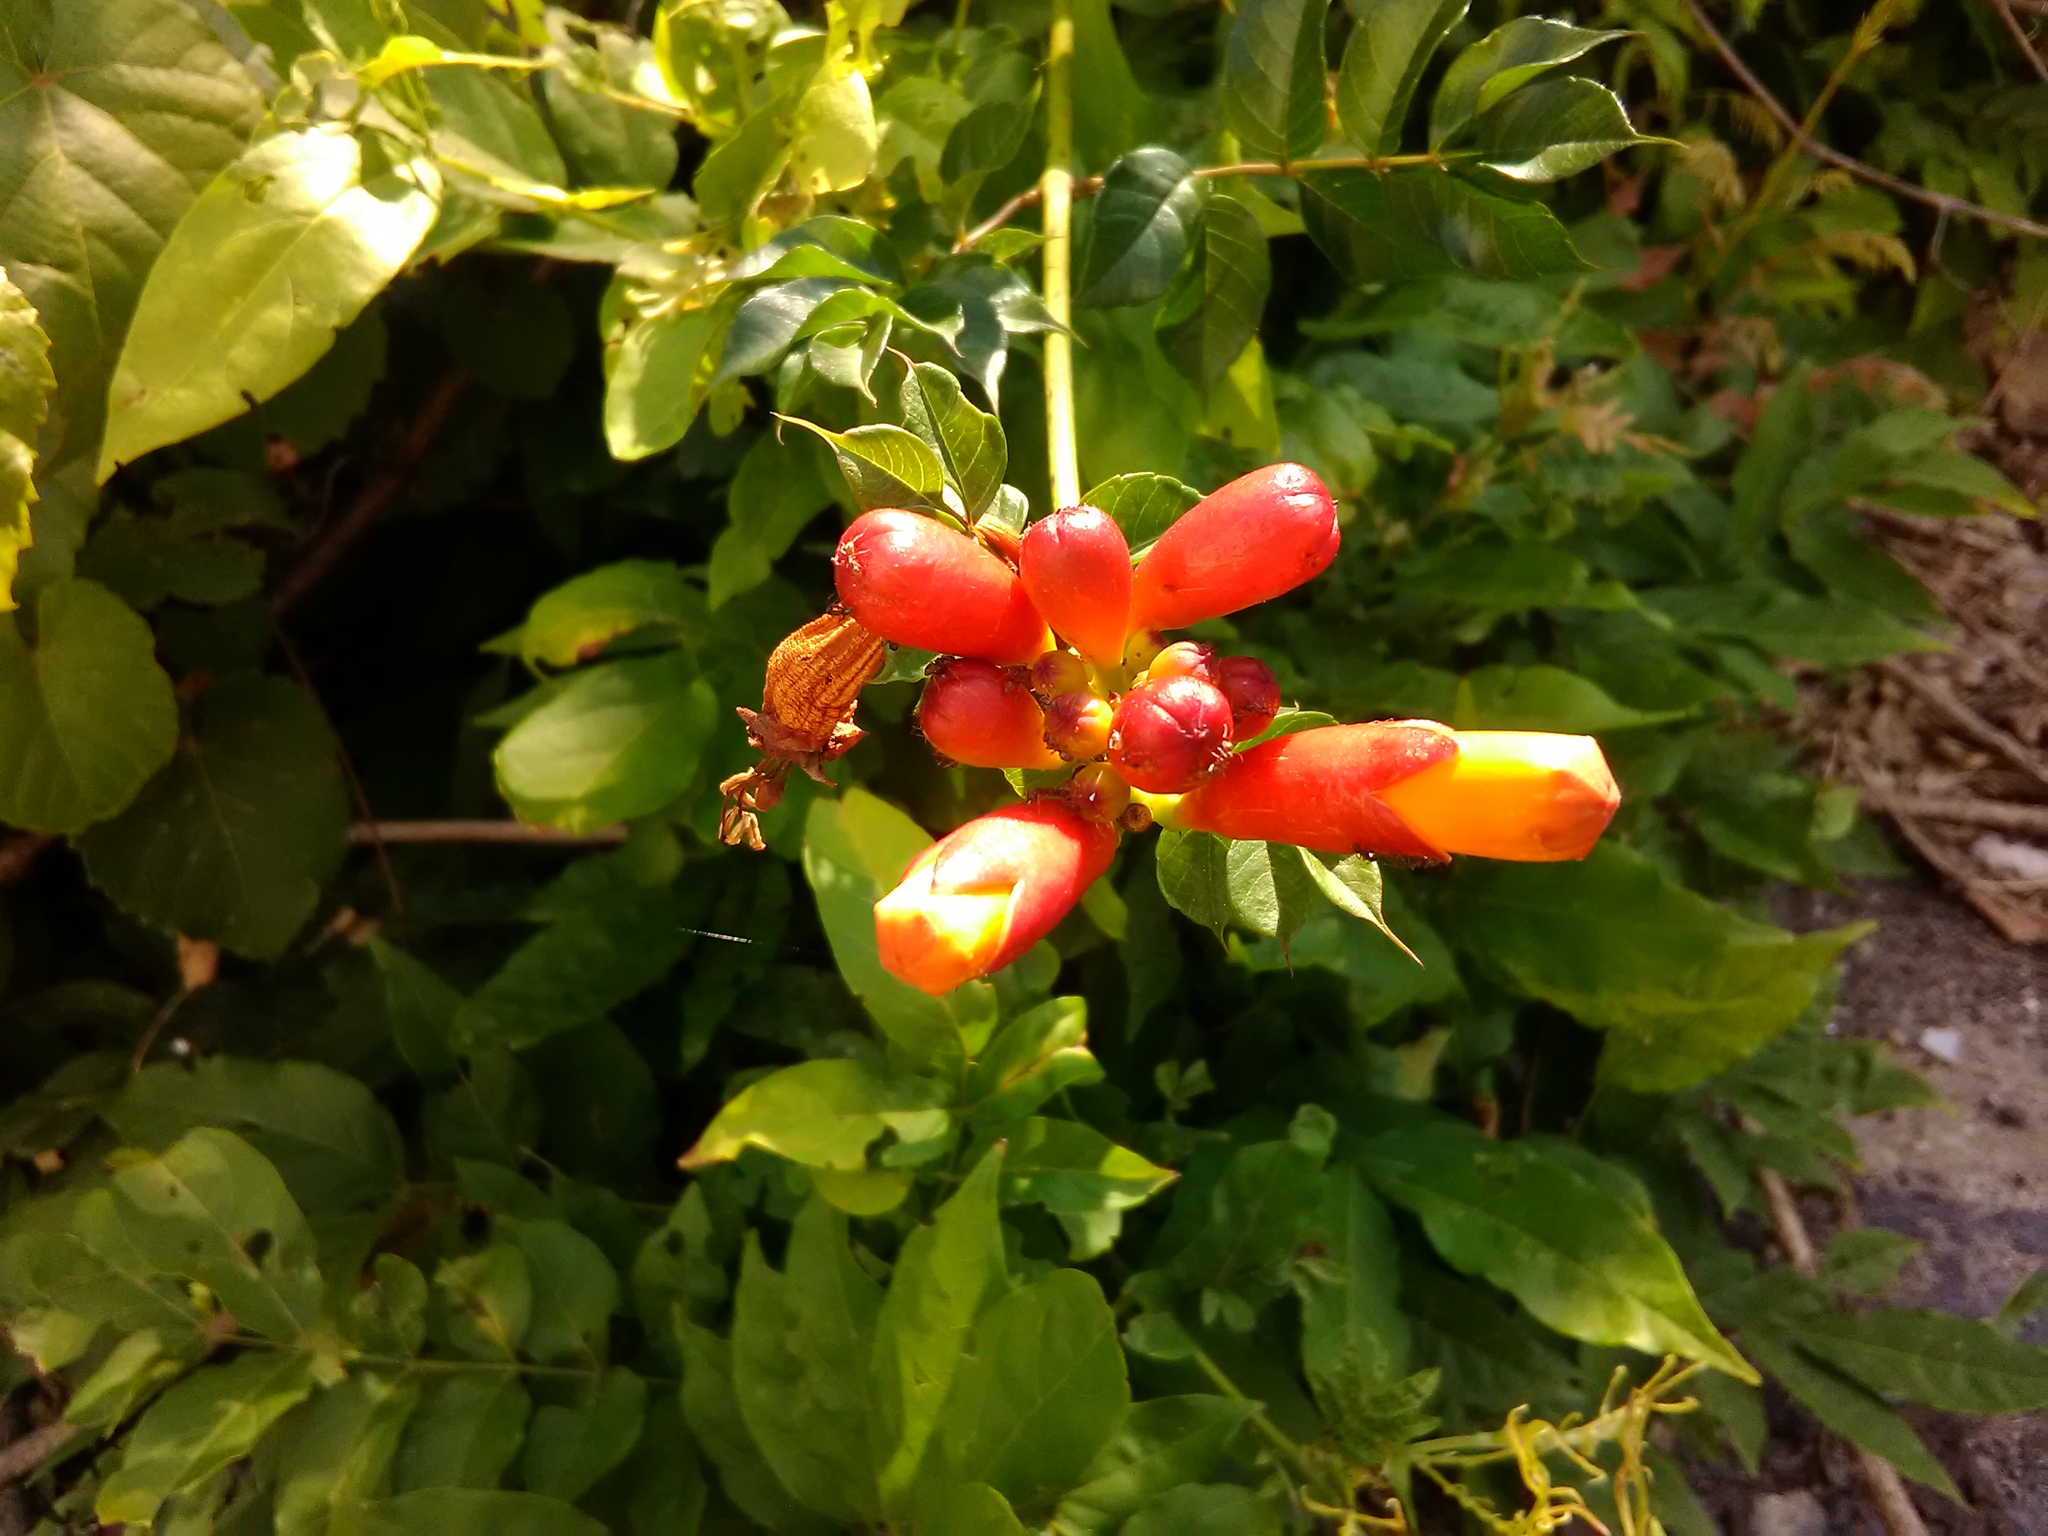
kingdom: Plantae
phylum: Tracheophyta
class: Magnoliopsida
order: Lamiales
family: Bignoniaceae
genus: Campsis
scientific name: Campsis radicans
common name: Trumpet-creeper
